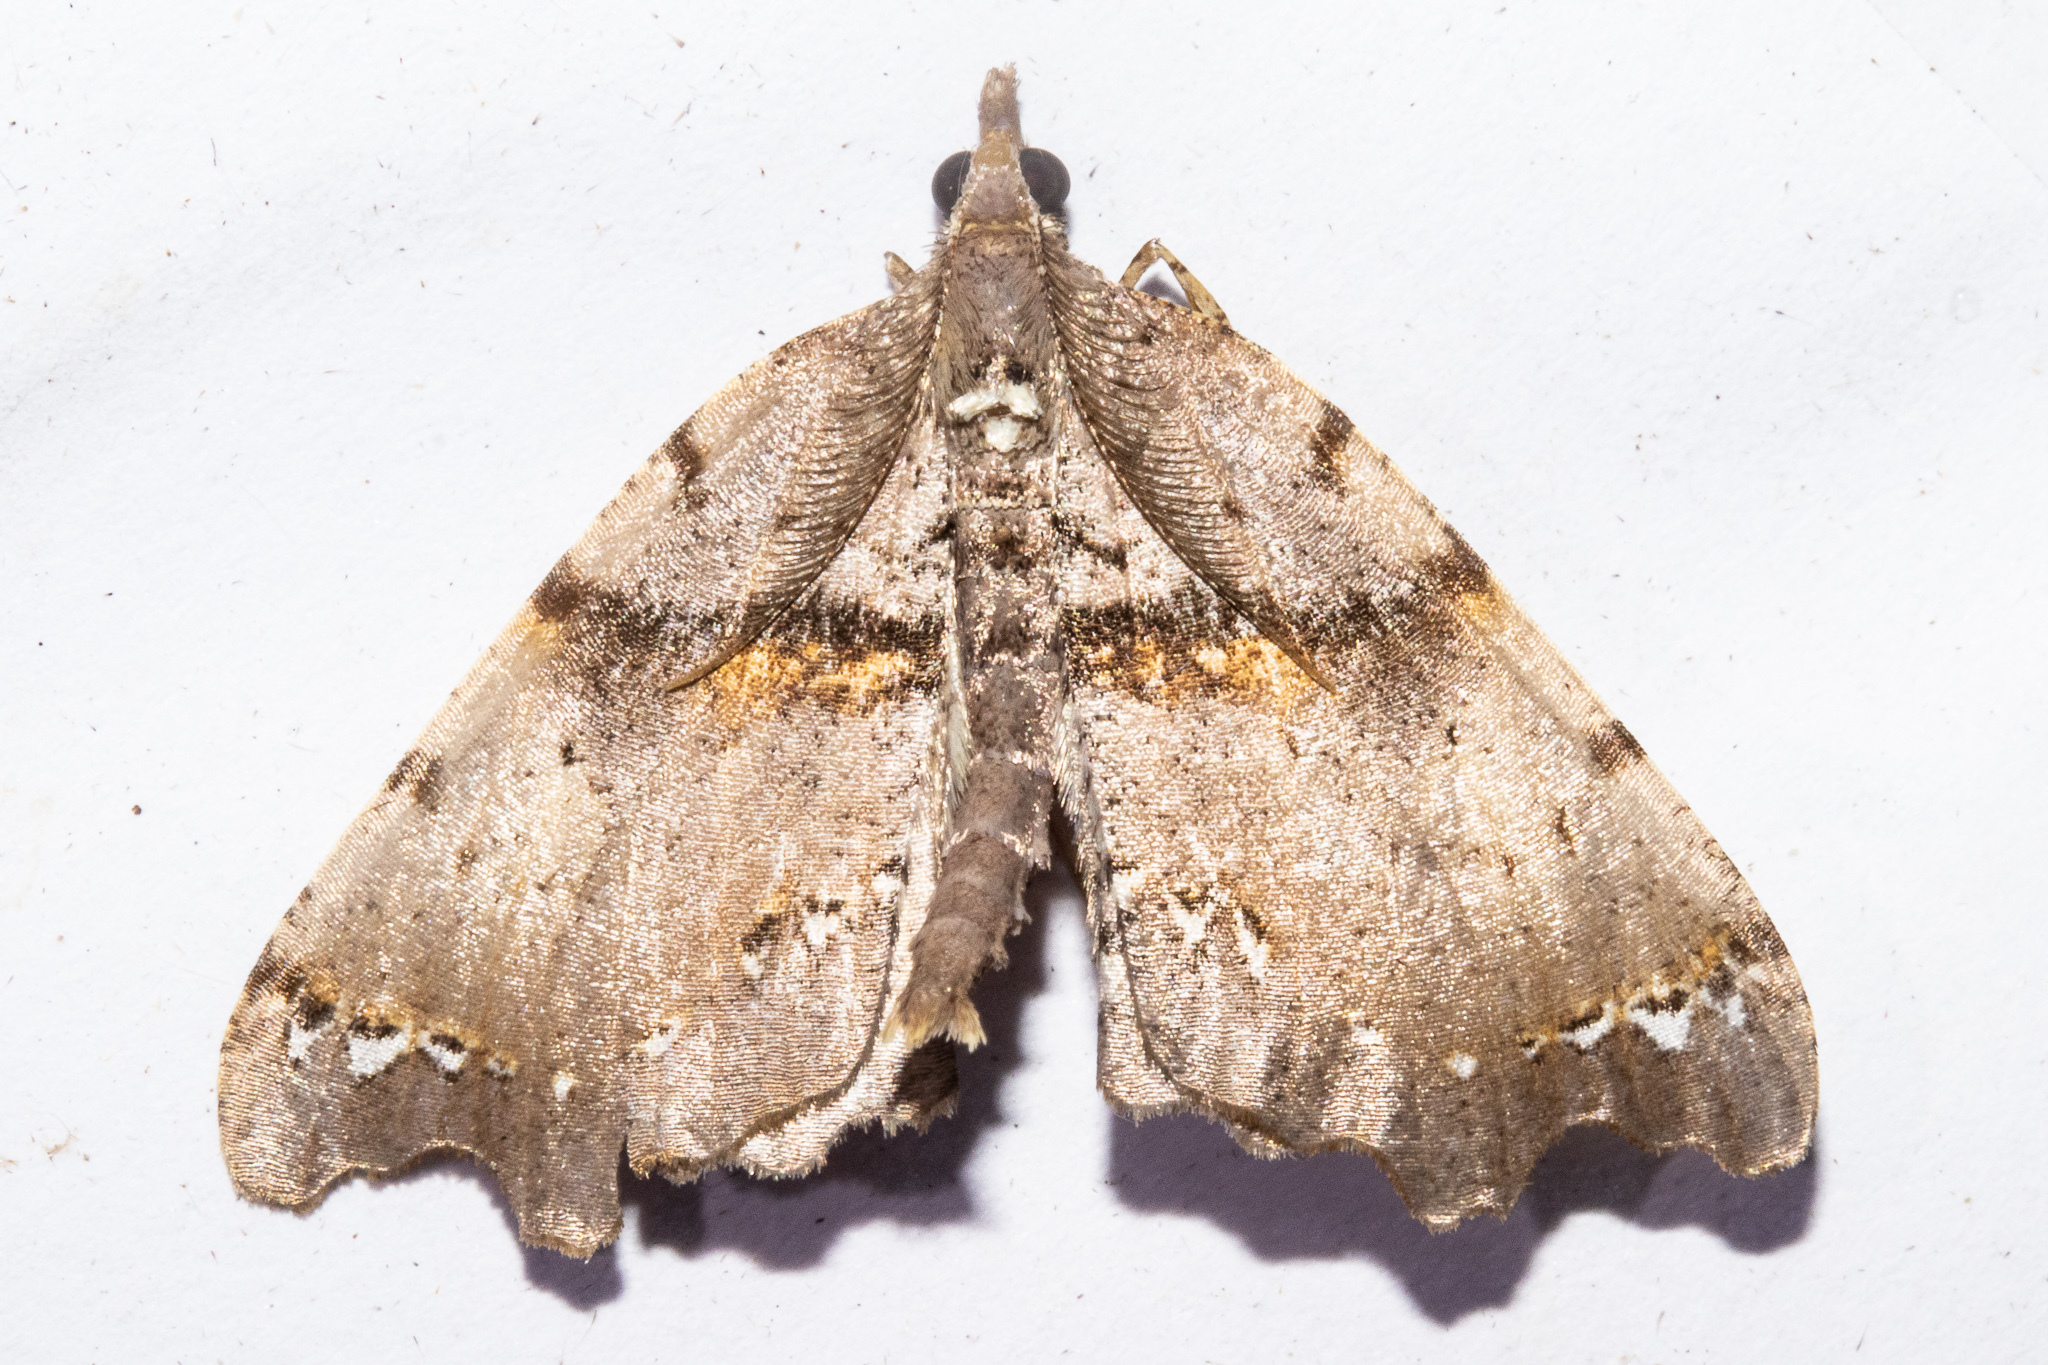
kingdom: Animalia
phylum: Arthropoda
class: Insecta
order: Lepidoptera
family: Geometridae
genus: Chalastra
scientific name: Chalastra pellurgata
